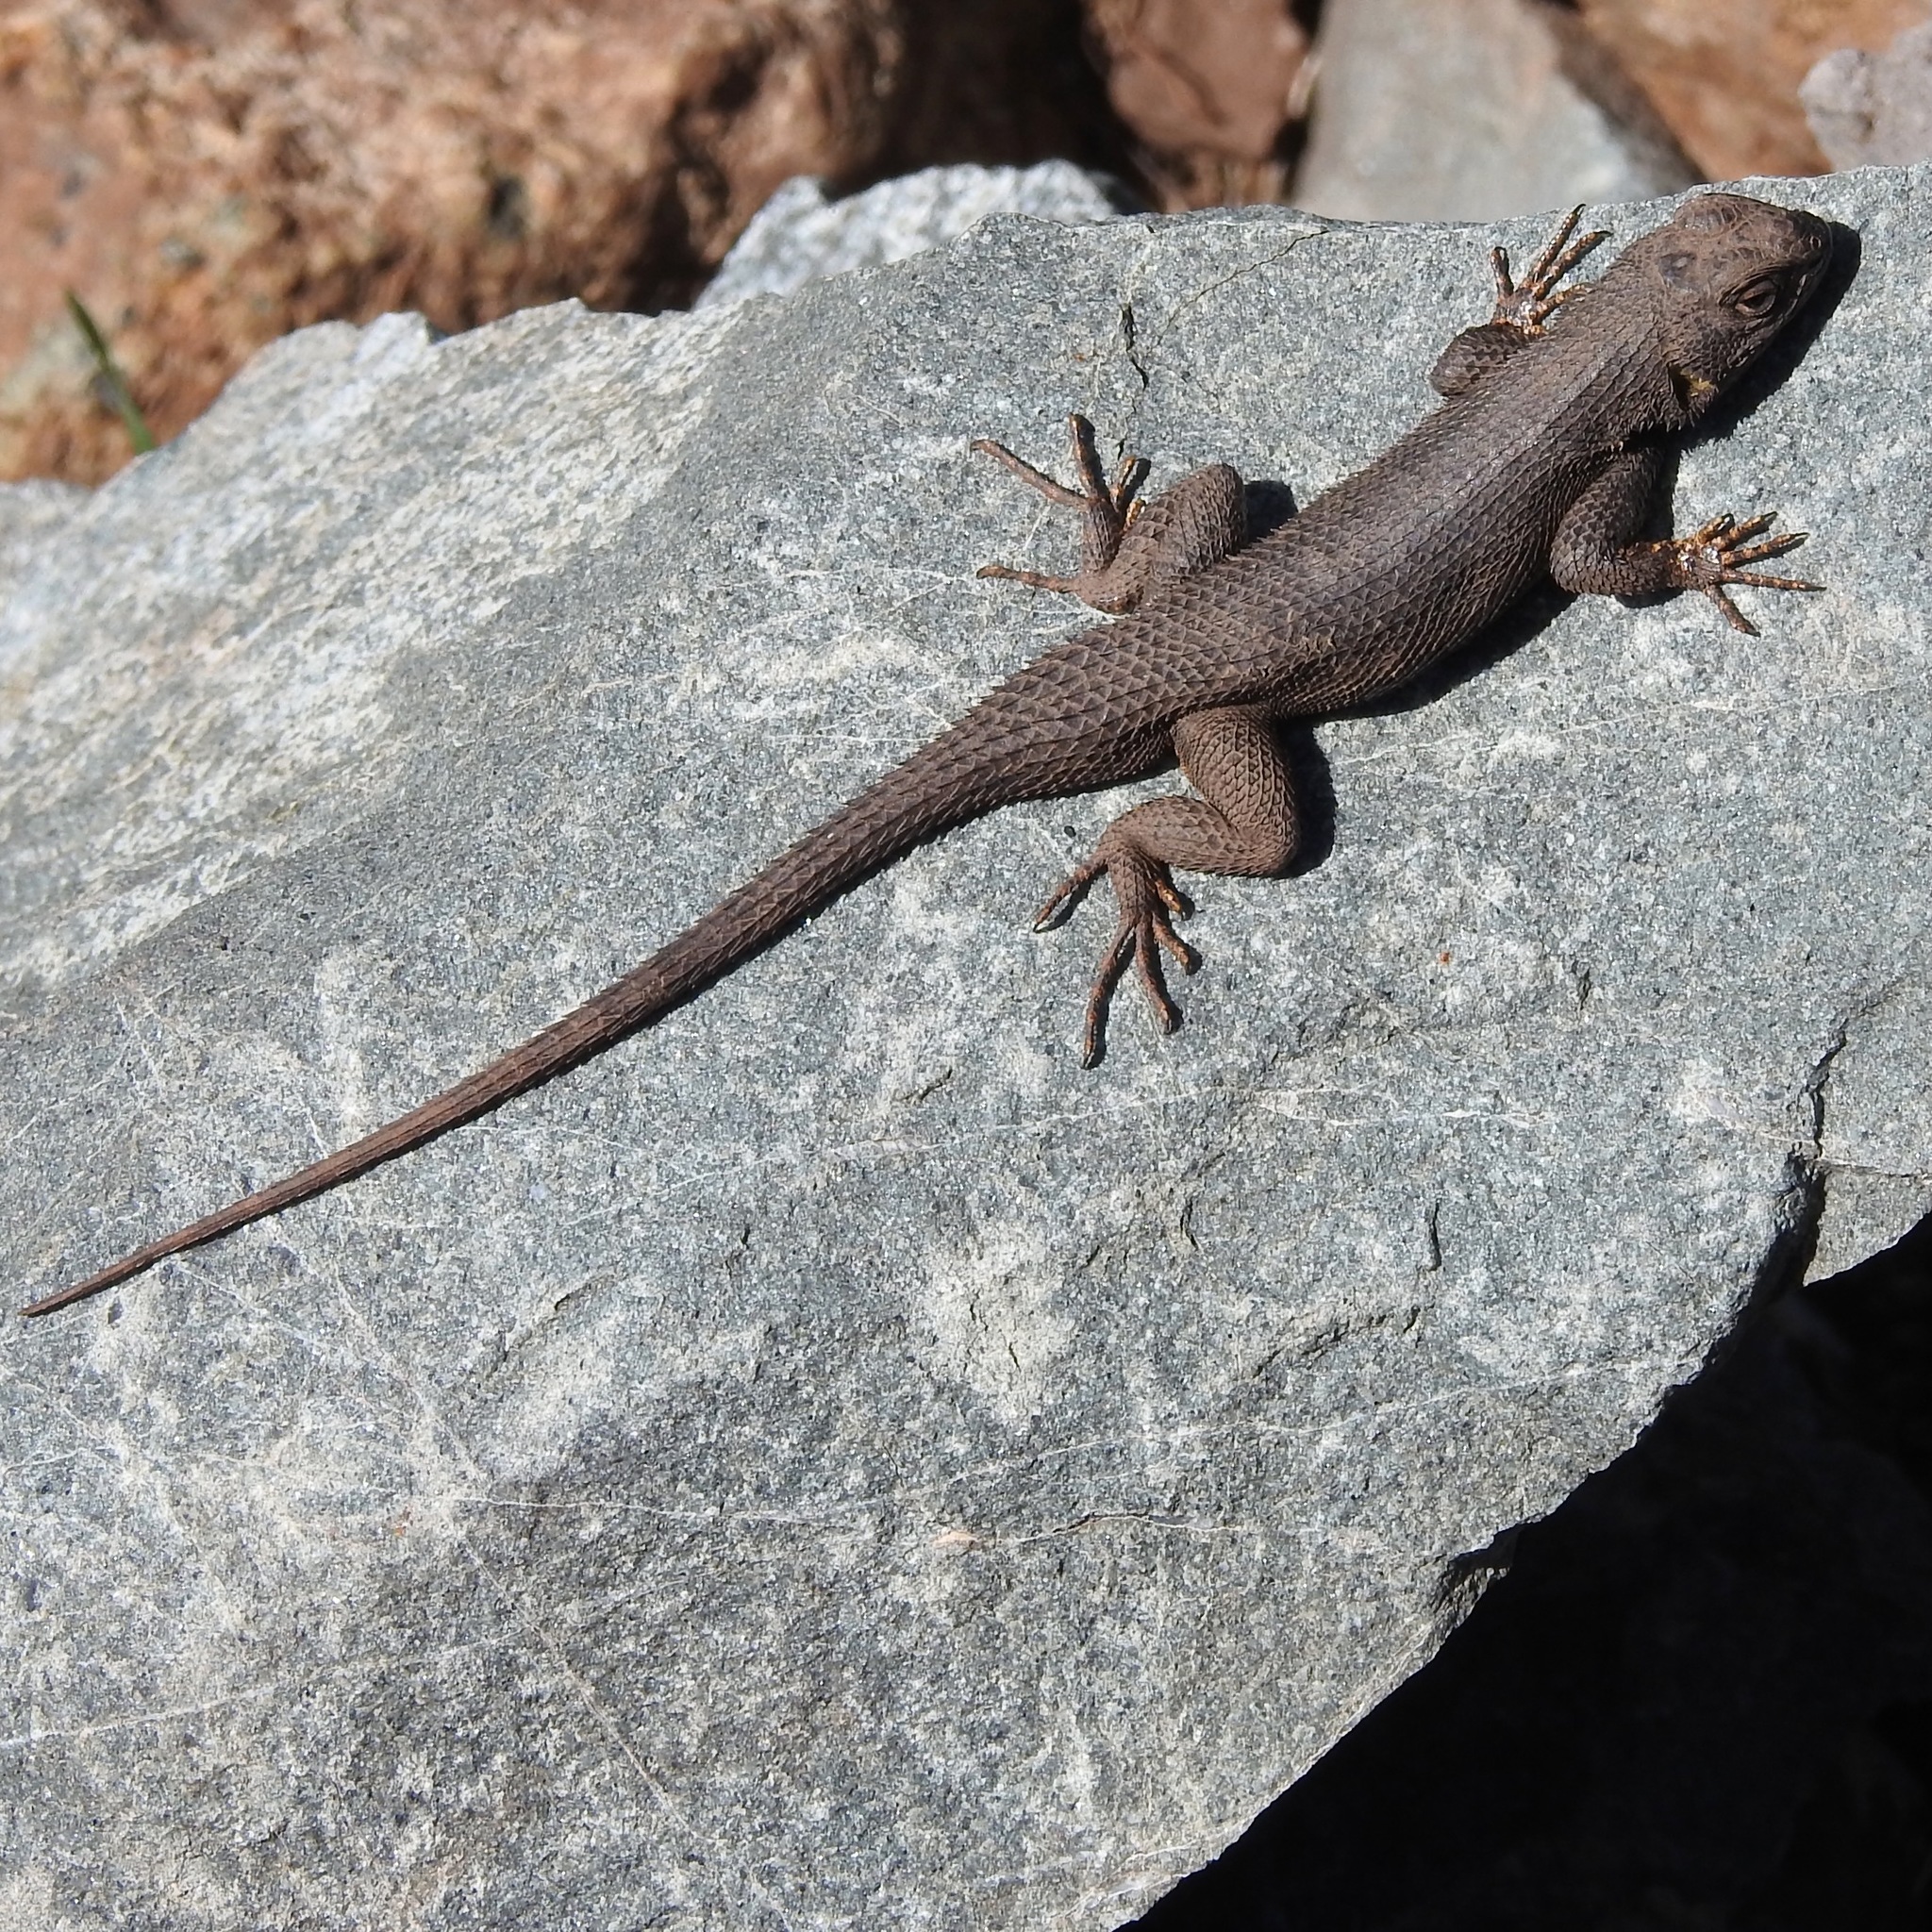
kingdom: Animalia
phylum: Chordata
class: Squamata
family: Phrynosomatidae
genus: Sceloporus
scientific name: Sceloporus occidentalis
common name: Western fence lizard
